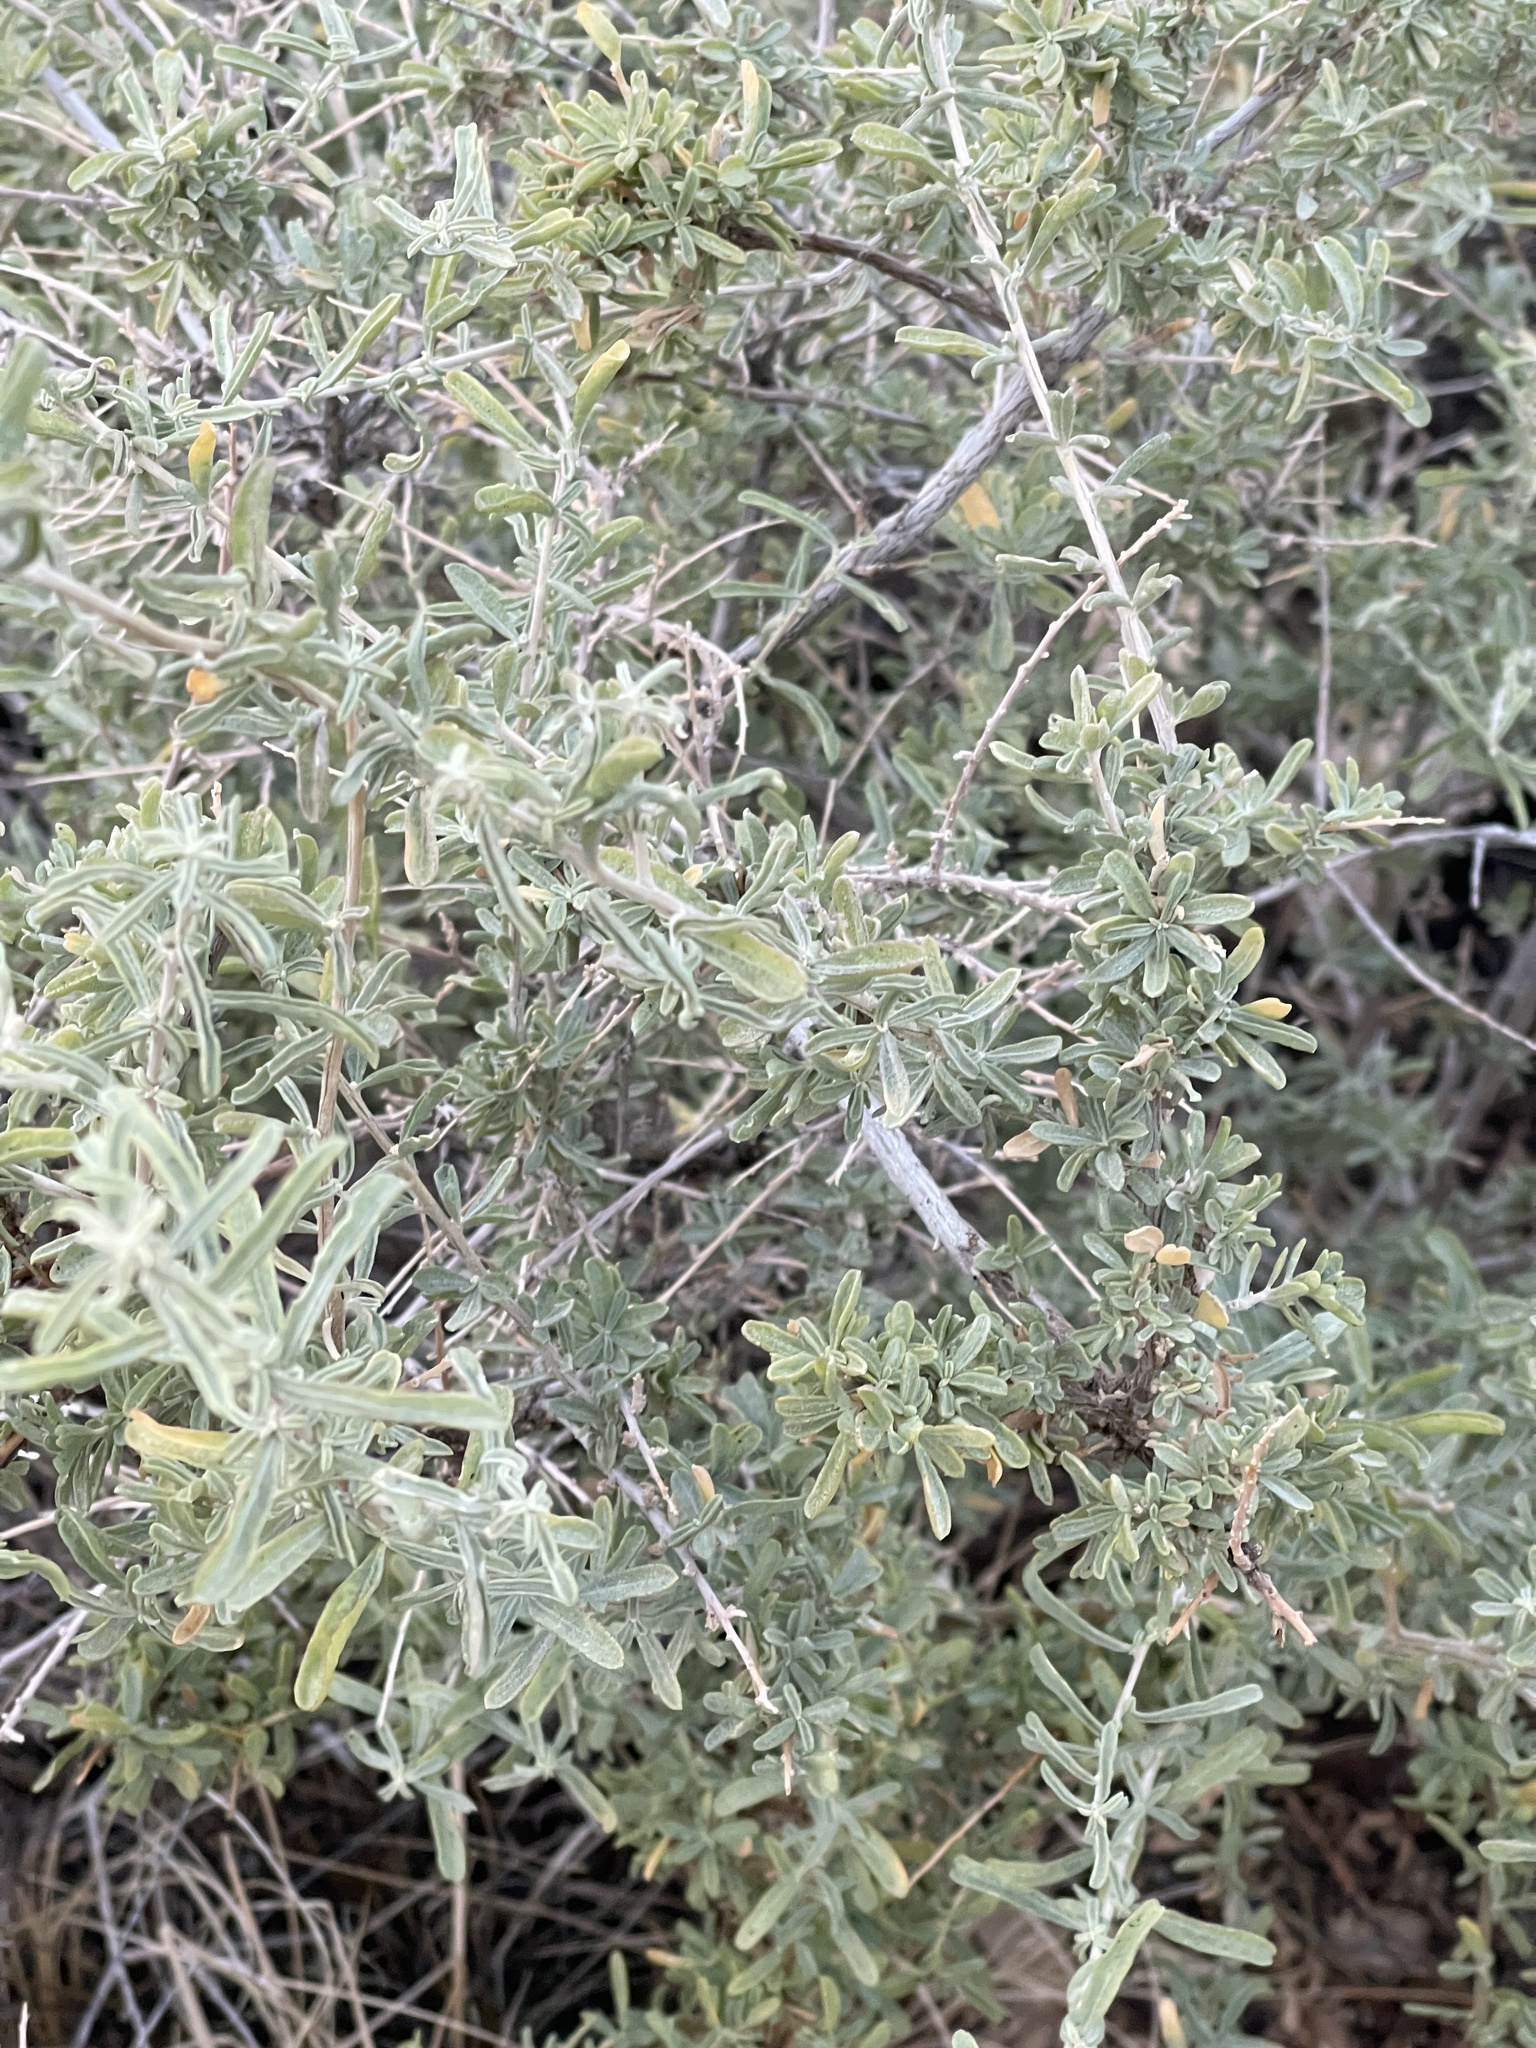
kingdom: Plantae
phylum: Tracheophyta
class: Magnoliopsida
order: Caryophyllales
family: Amaranthaceae
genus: Atriplex
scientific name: Atriplex canescens
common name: Four-wing saltbush
